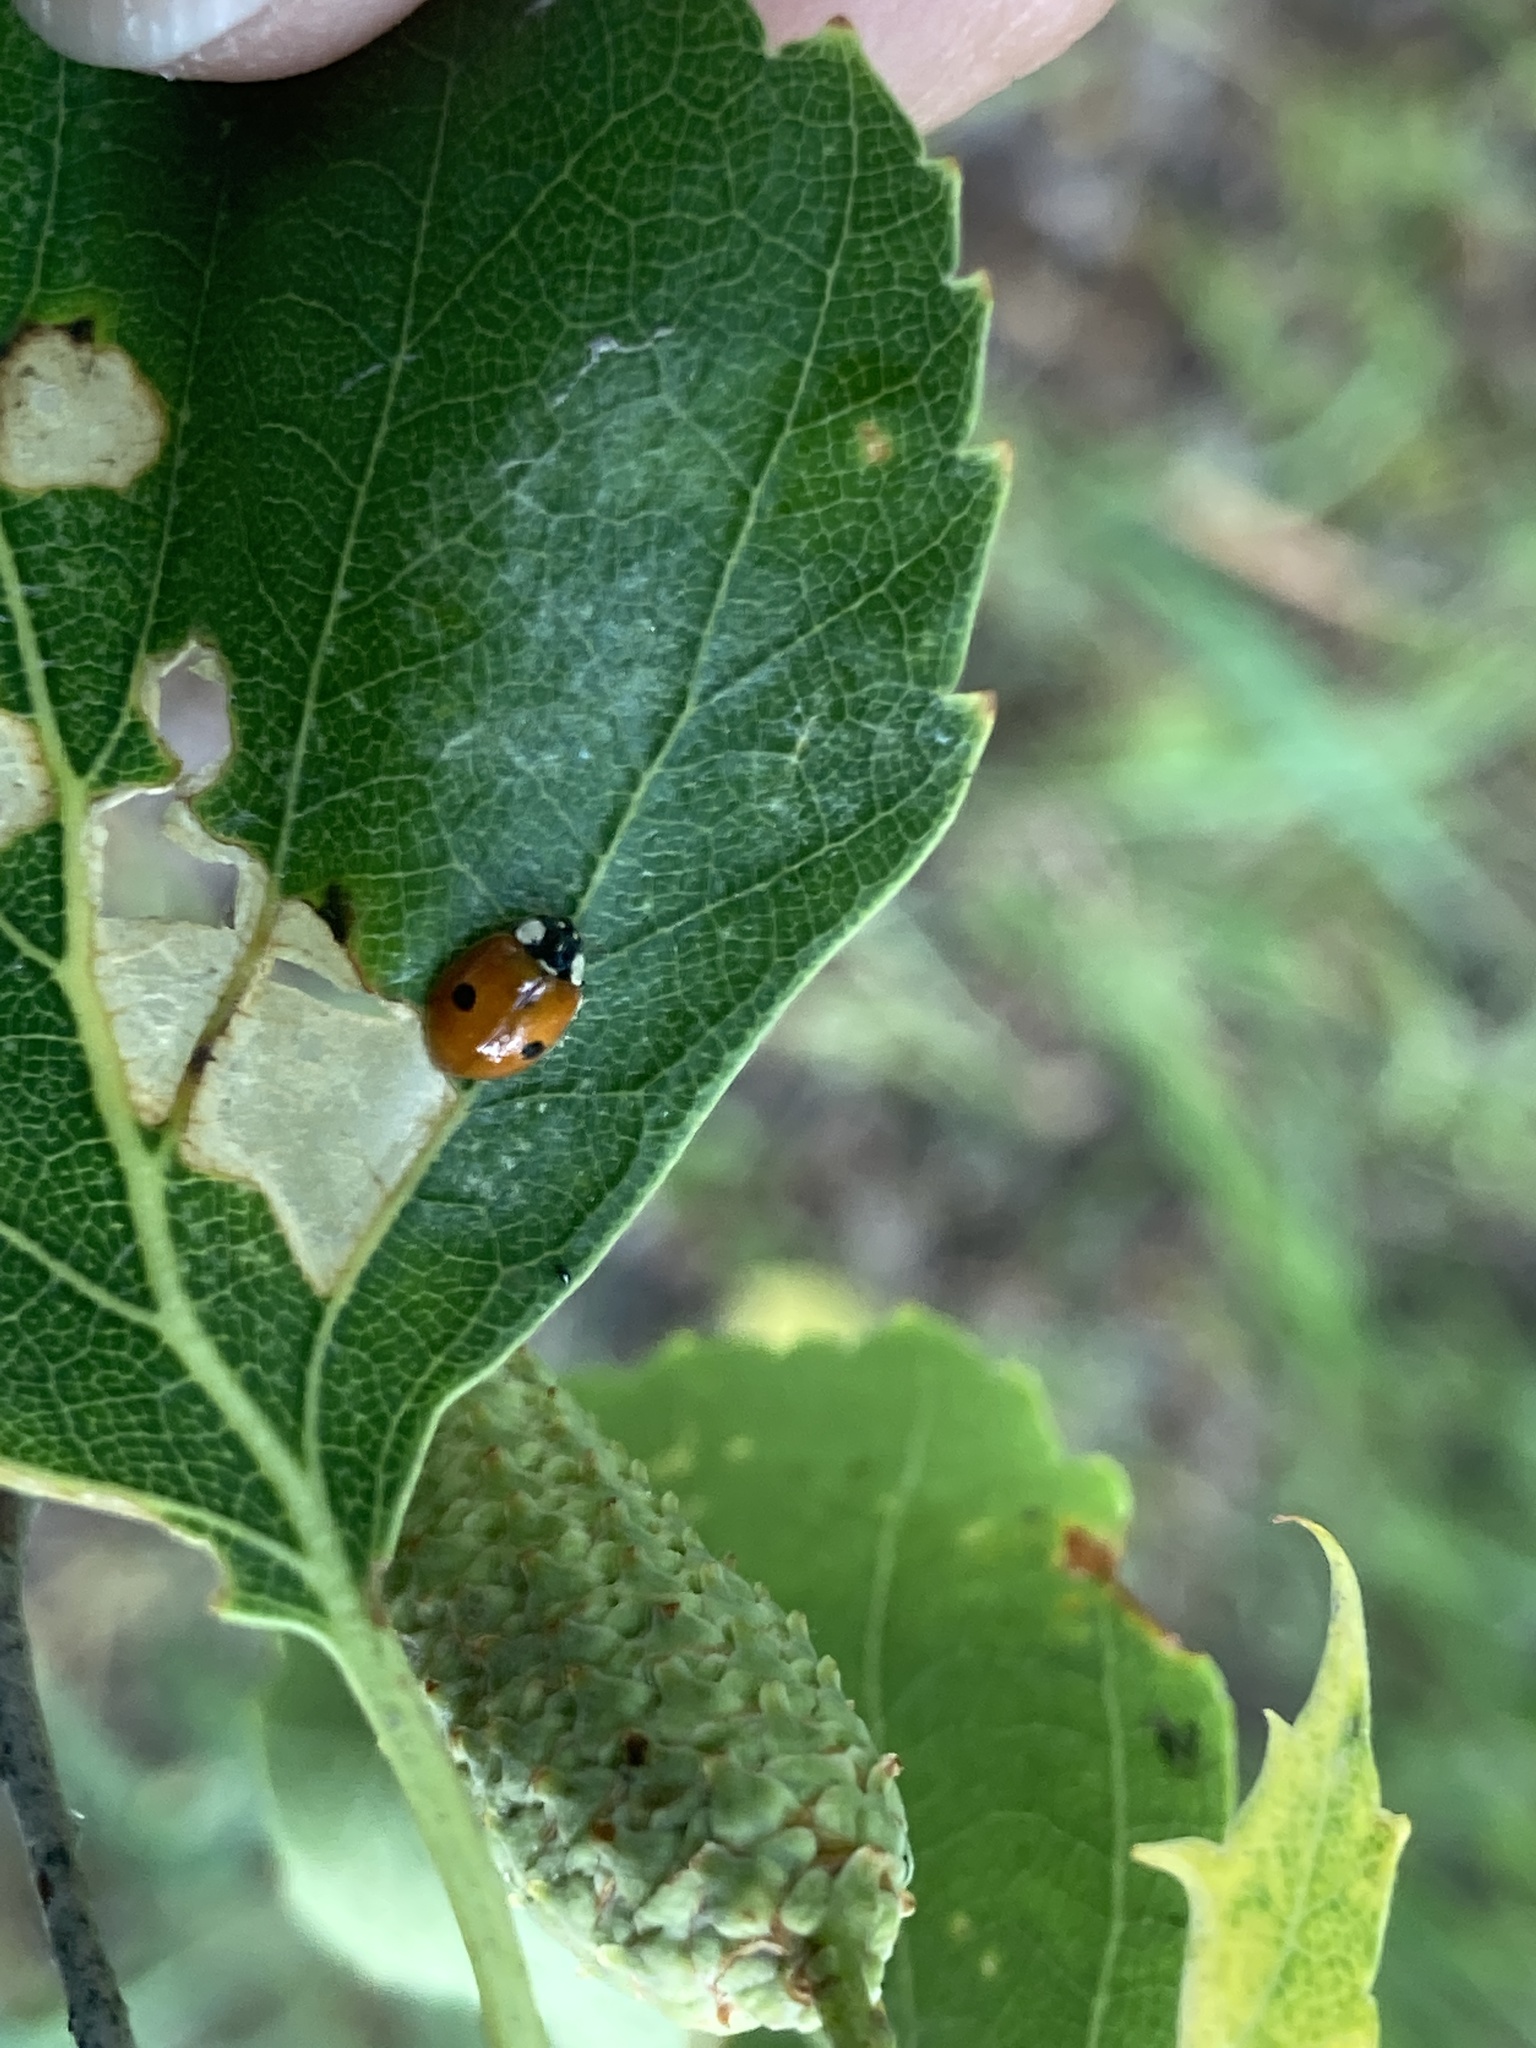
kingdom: Animalia
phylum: Arthropoda
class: Insecta
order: Coleoptera
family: Coccinellidae
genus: Adalia
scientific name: Adalia bipunctata
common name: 2-spot ladybird
